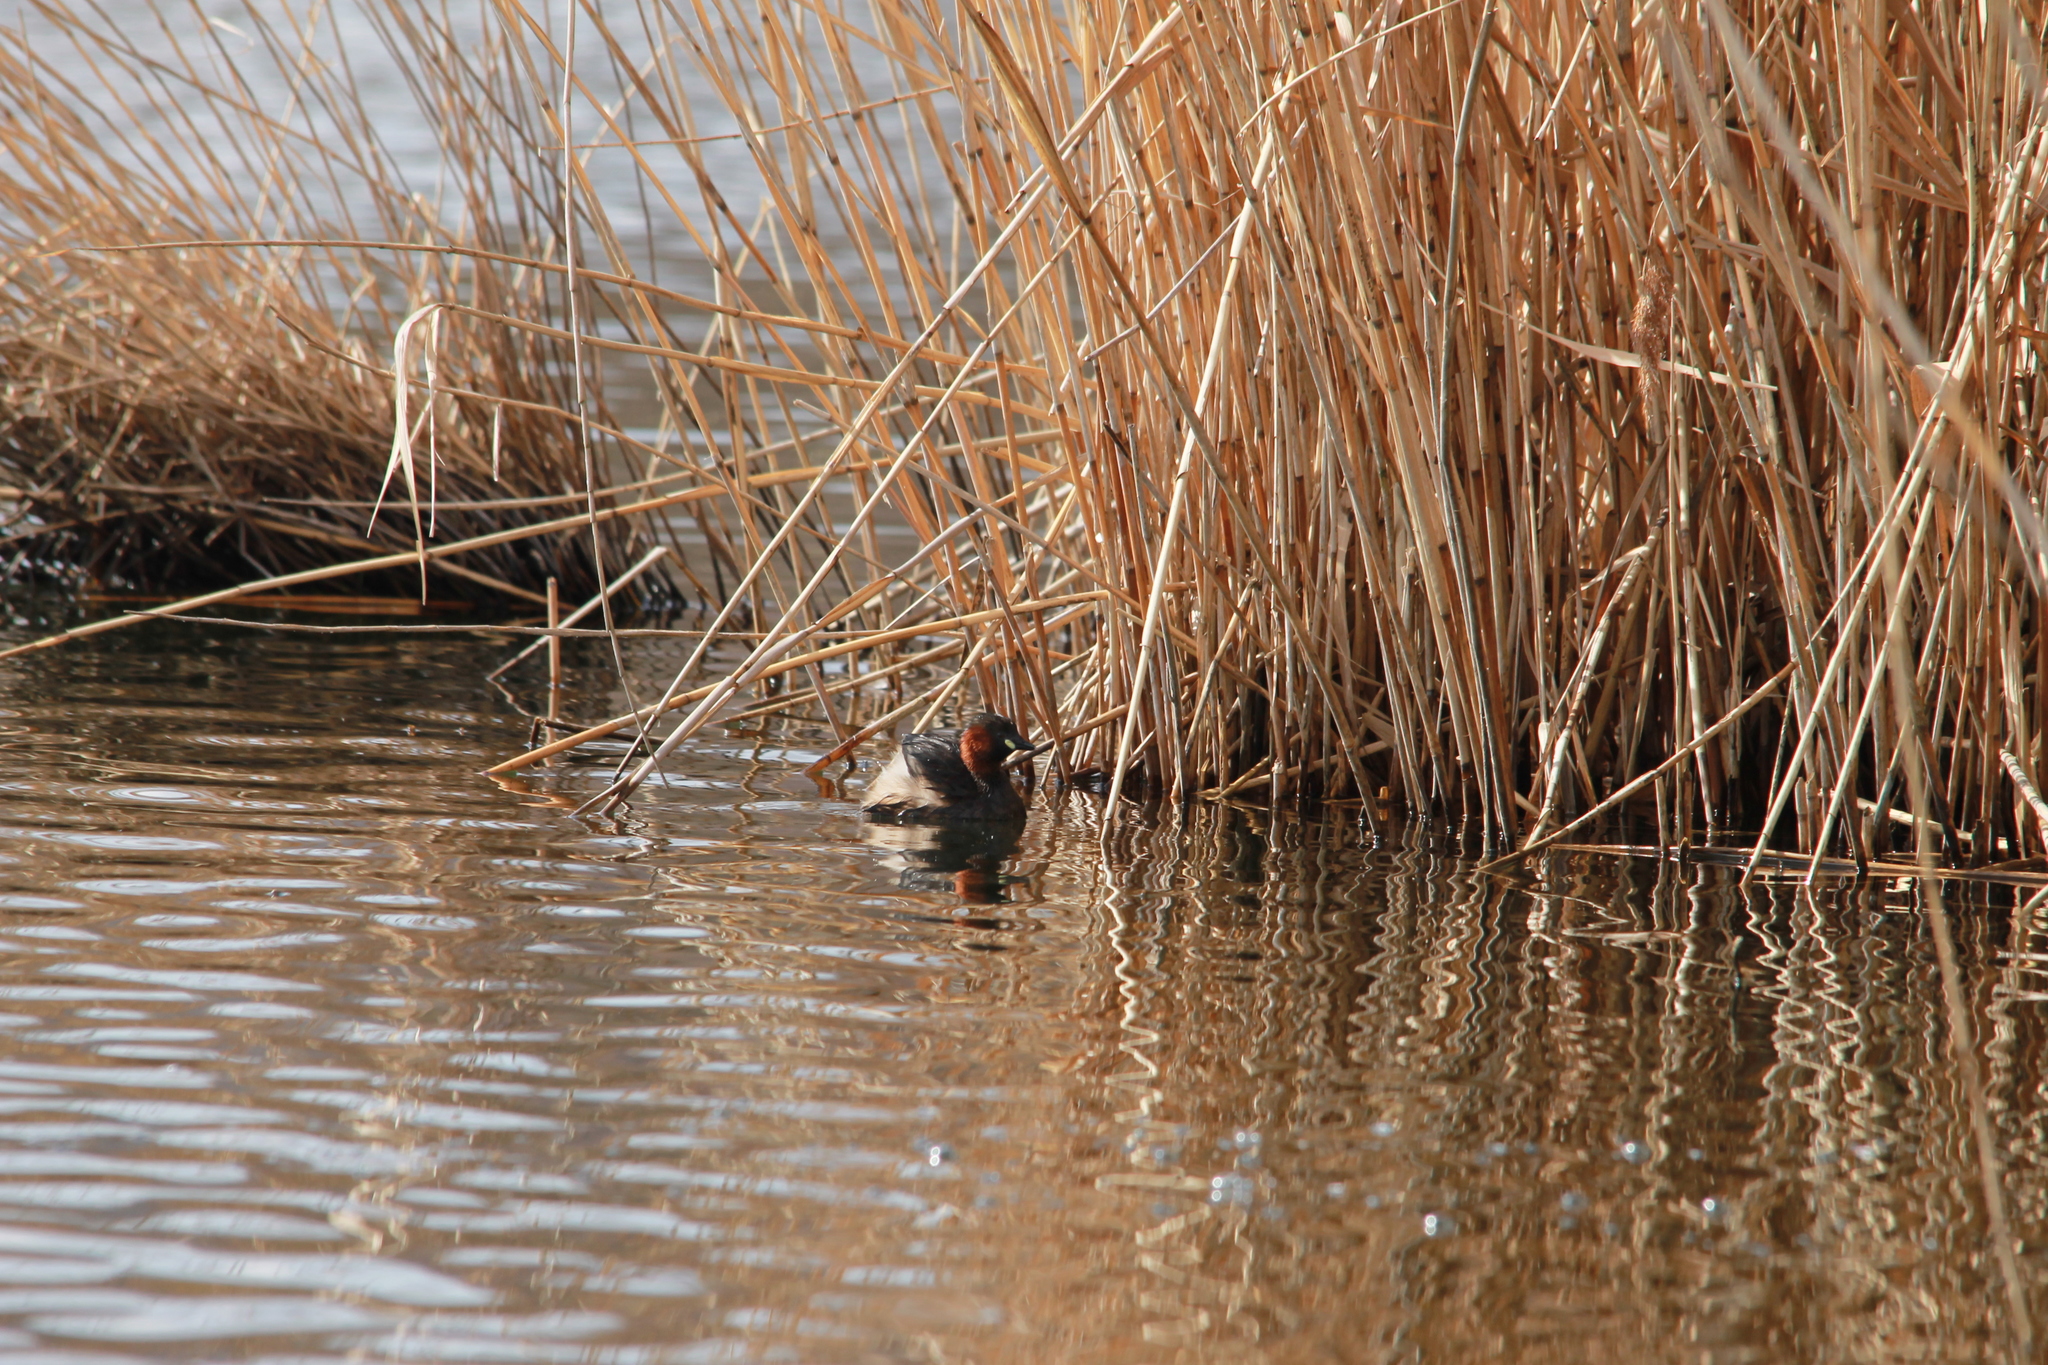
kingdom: Animalia
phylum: Chordata
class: Aves
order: Podicipediformes
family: Podicipedidae
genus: Tachybaptus
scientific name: Tachybaptus ruficollis
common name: Little grebe
